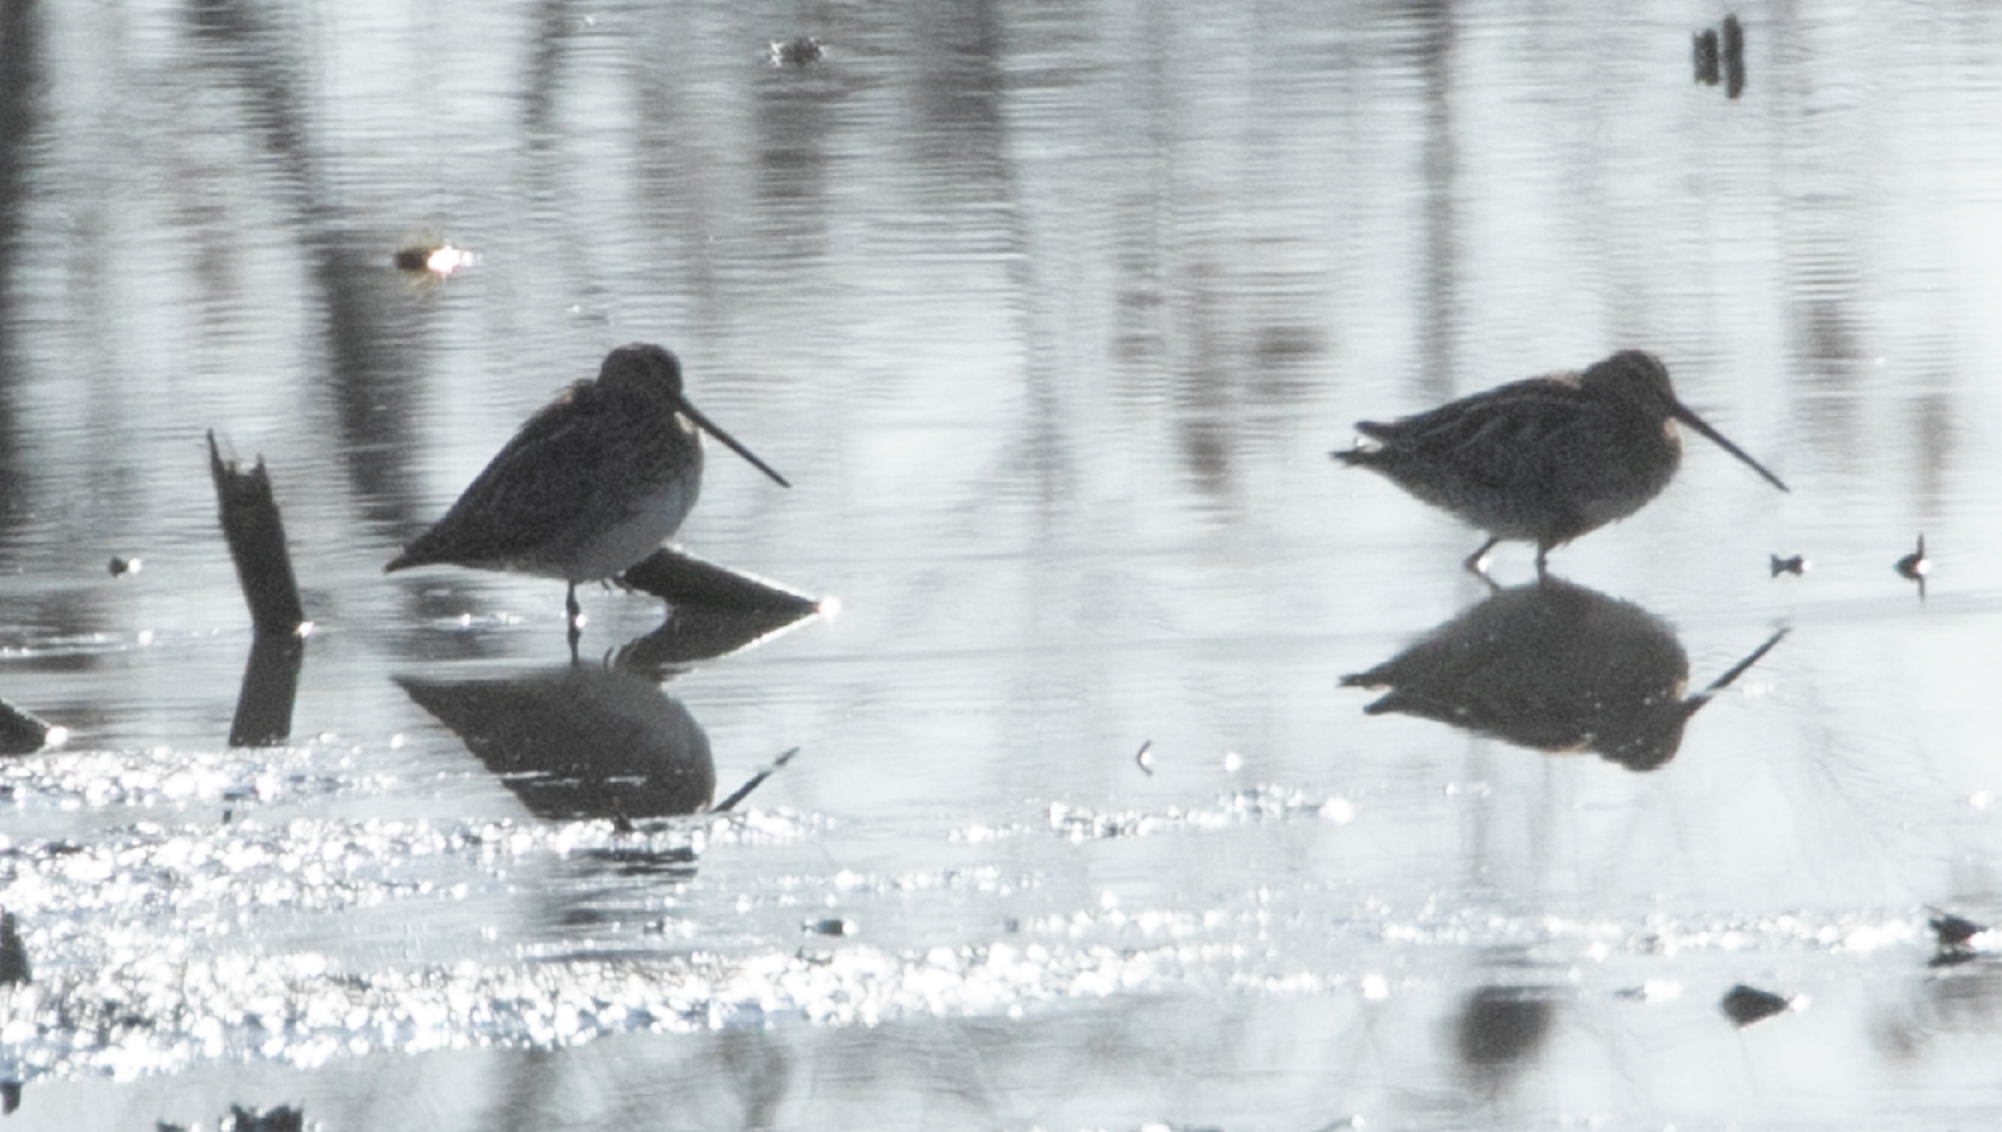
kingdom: Animalia
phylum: Chordata
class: Aves
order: Charadriiformes
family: Scolopacidae
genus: Gallinago
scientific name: Gallinago gallinago
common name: Common snipe
